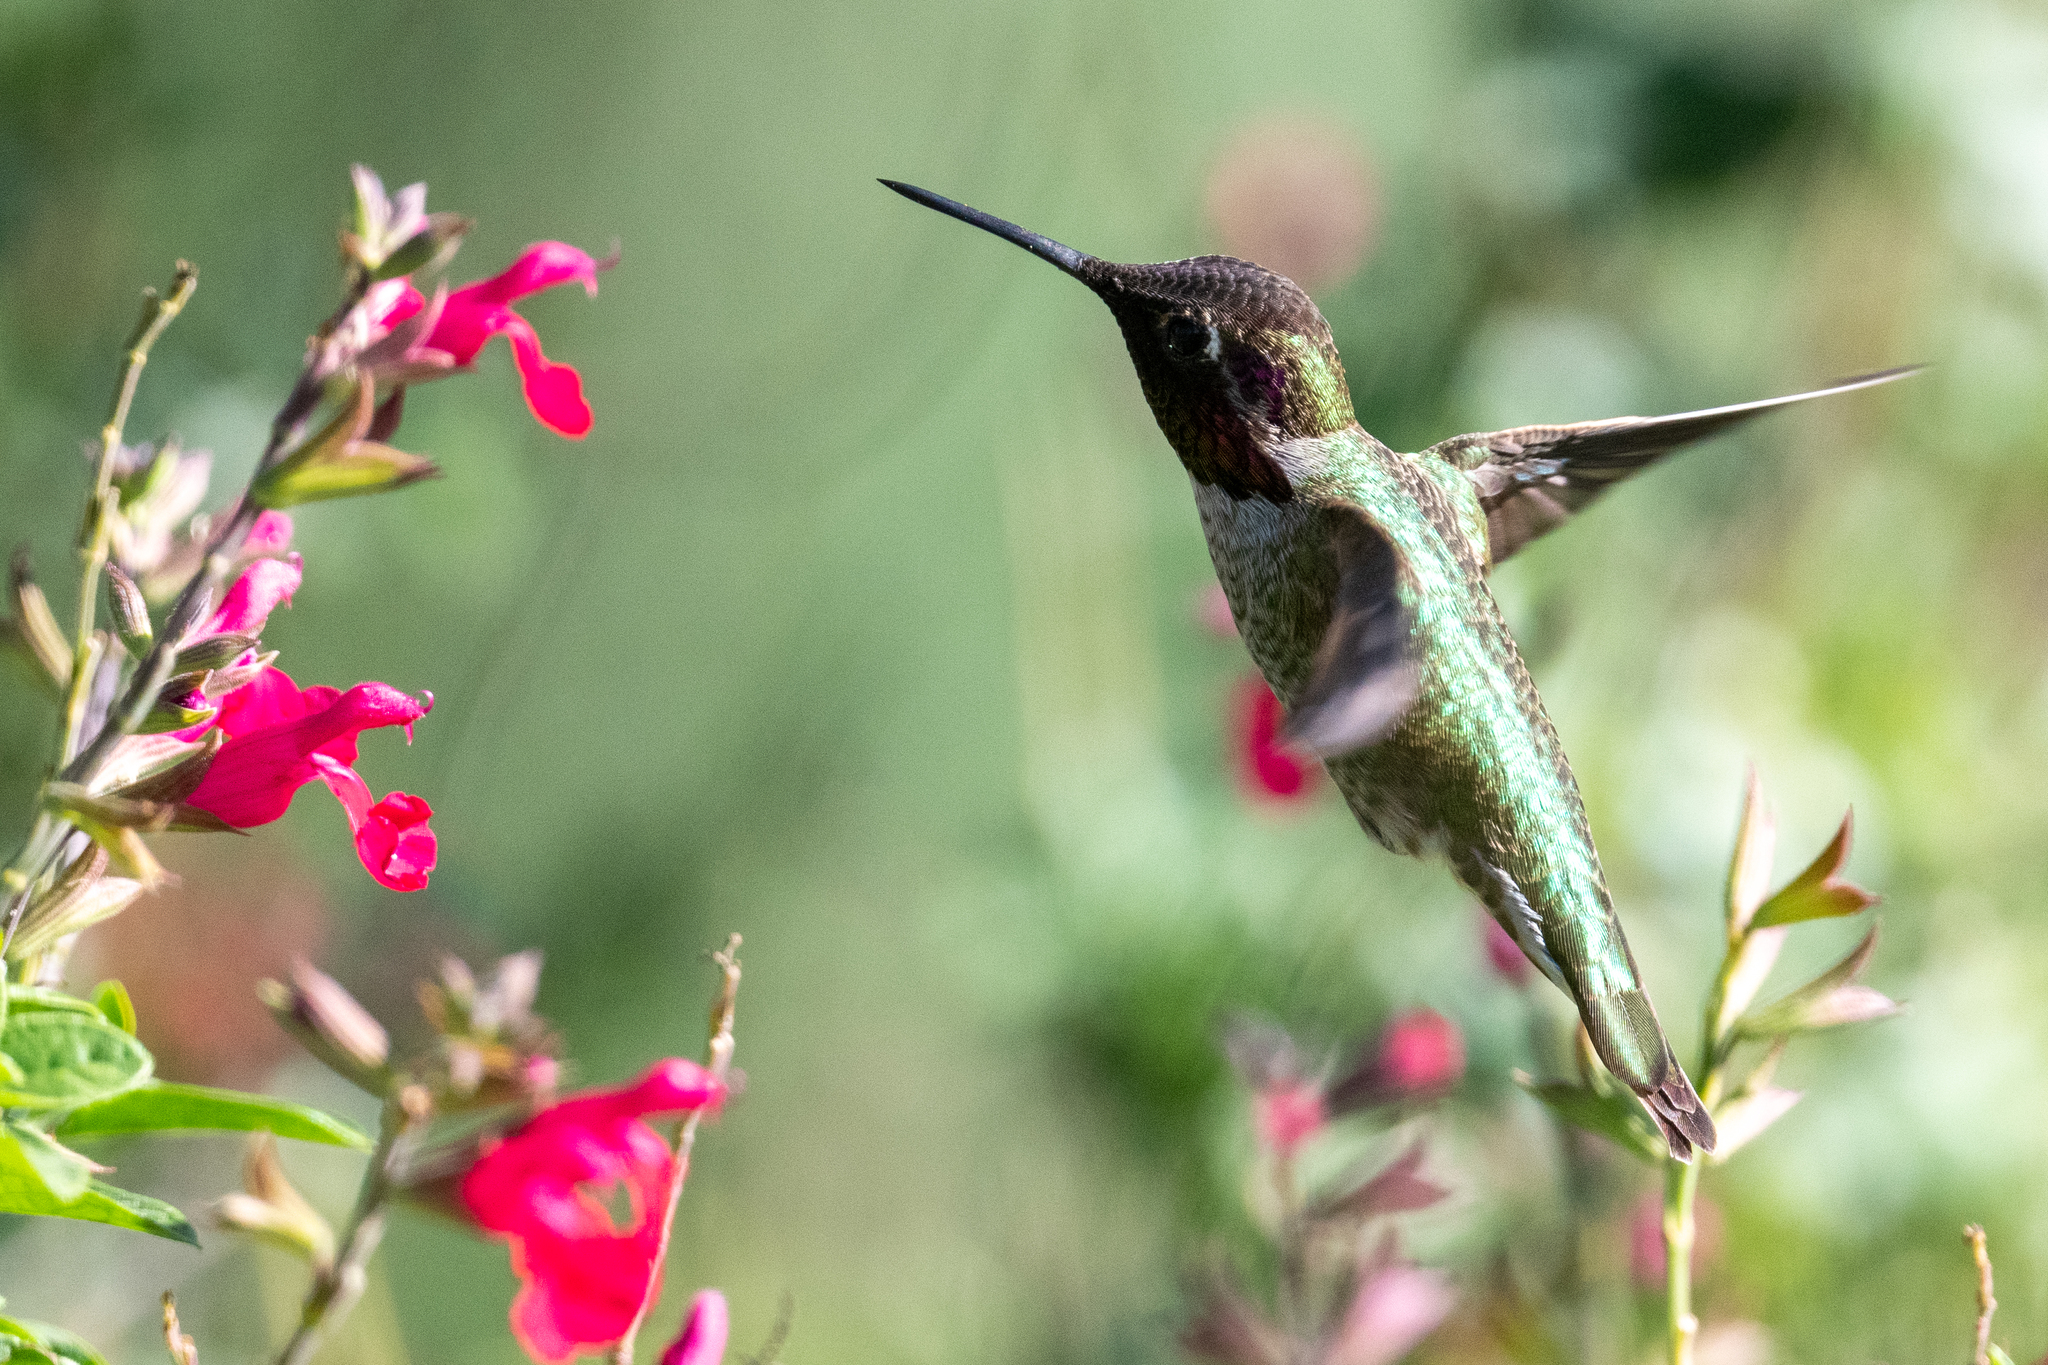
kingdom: Animalia
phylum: Chordata
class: Aves
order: Apodiformes
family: Trochilidae
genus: Calypte
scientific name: Calypte anna
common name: Anna's hummingbird
